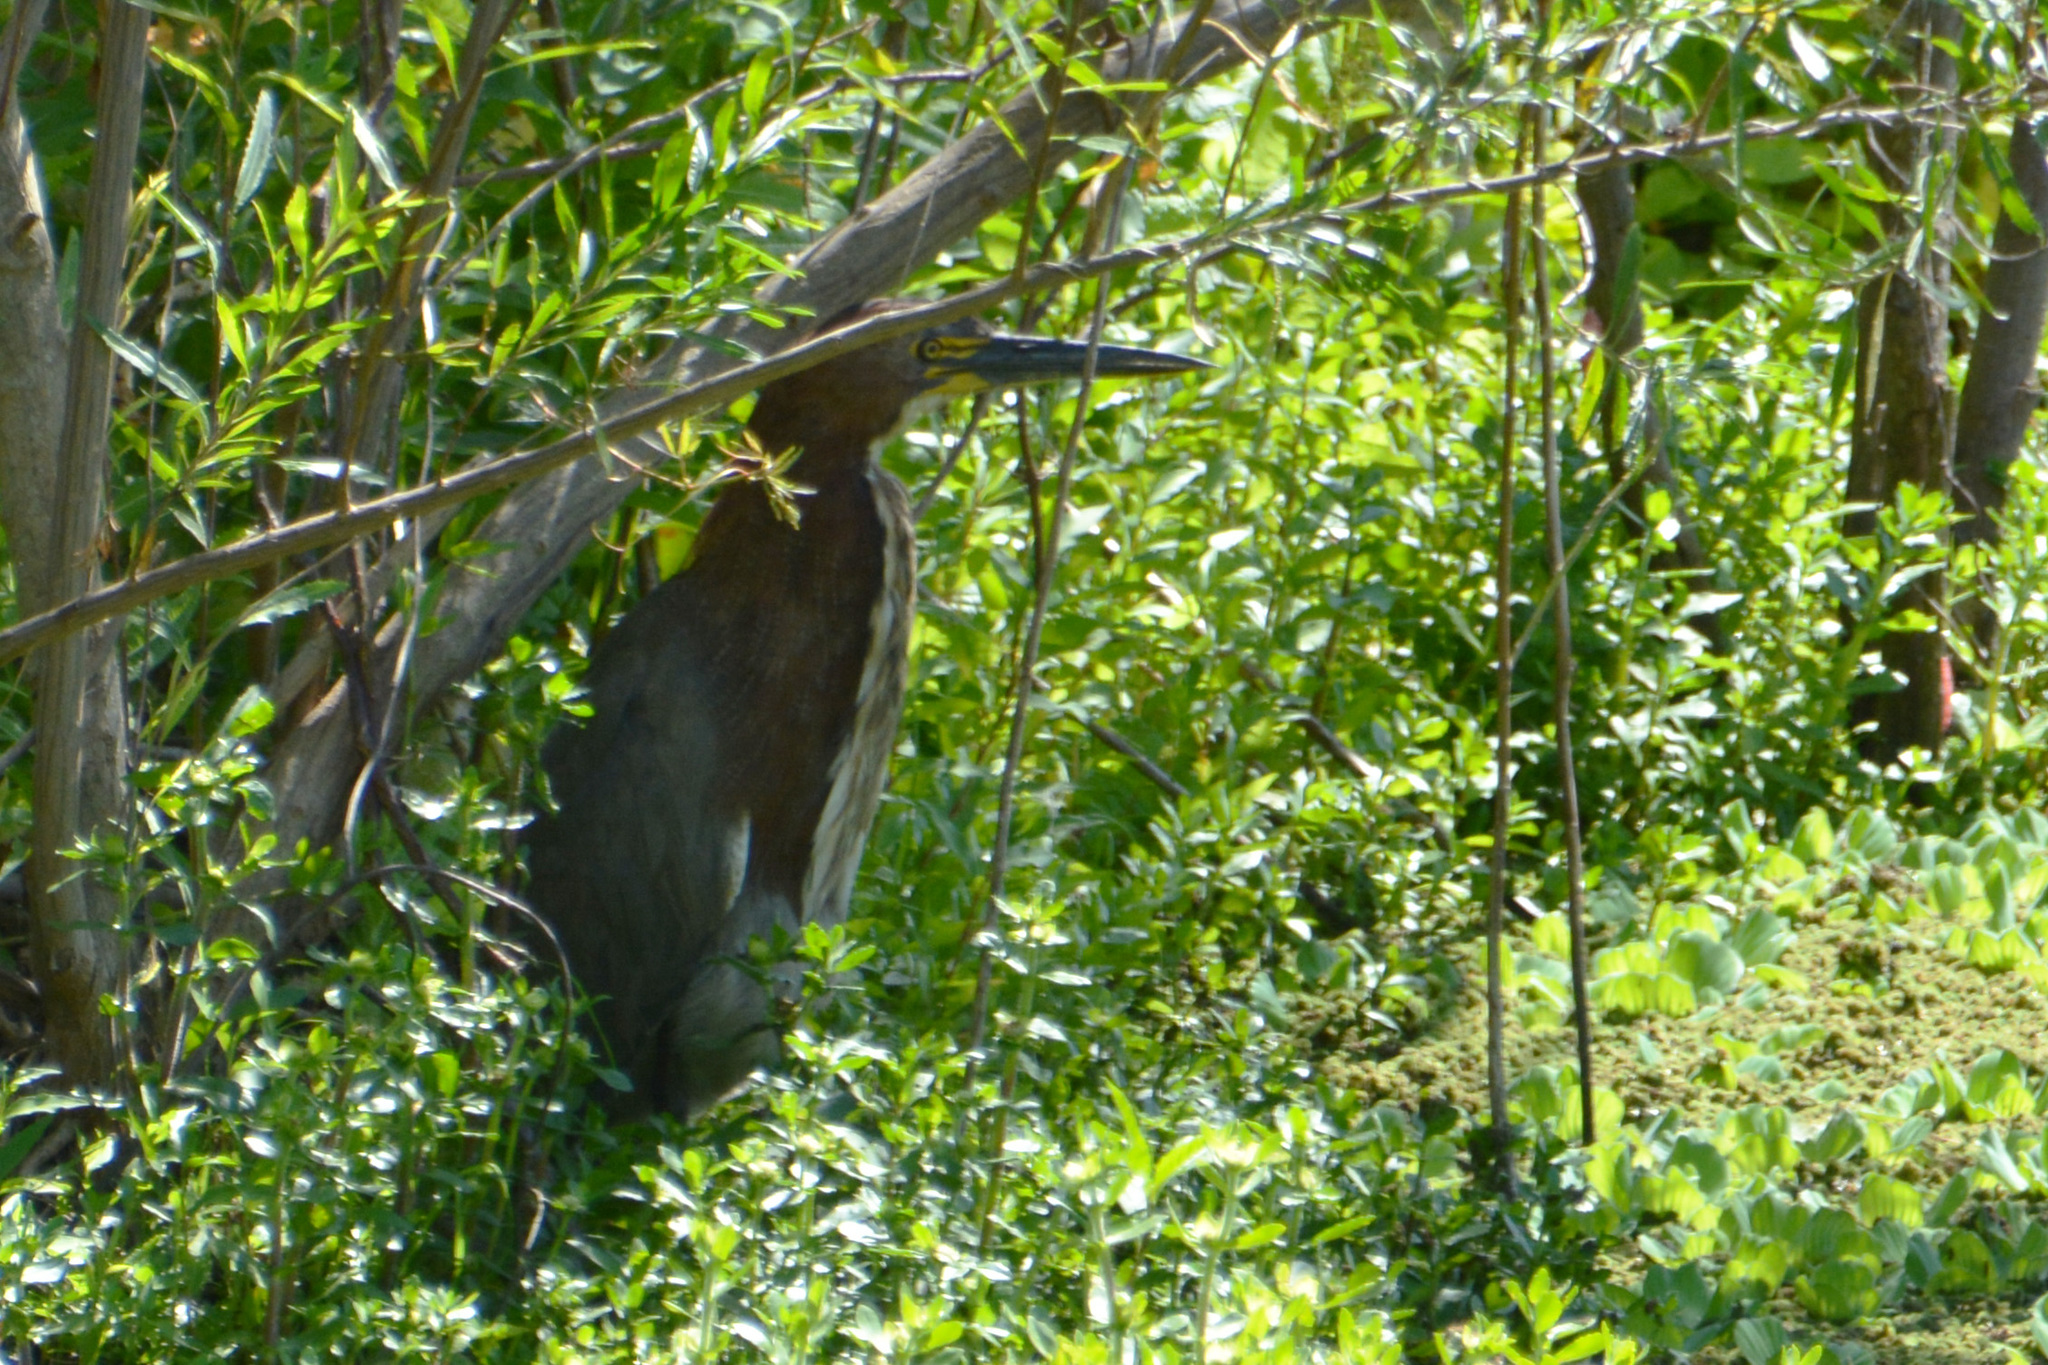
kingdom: Animalia
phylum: Chordata
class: Aves
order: Pelecaniformes
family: Ardeidae
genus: Tigrisoma
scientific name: Tigrisoma lineatum
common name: Rufescent tiger-heron
